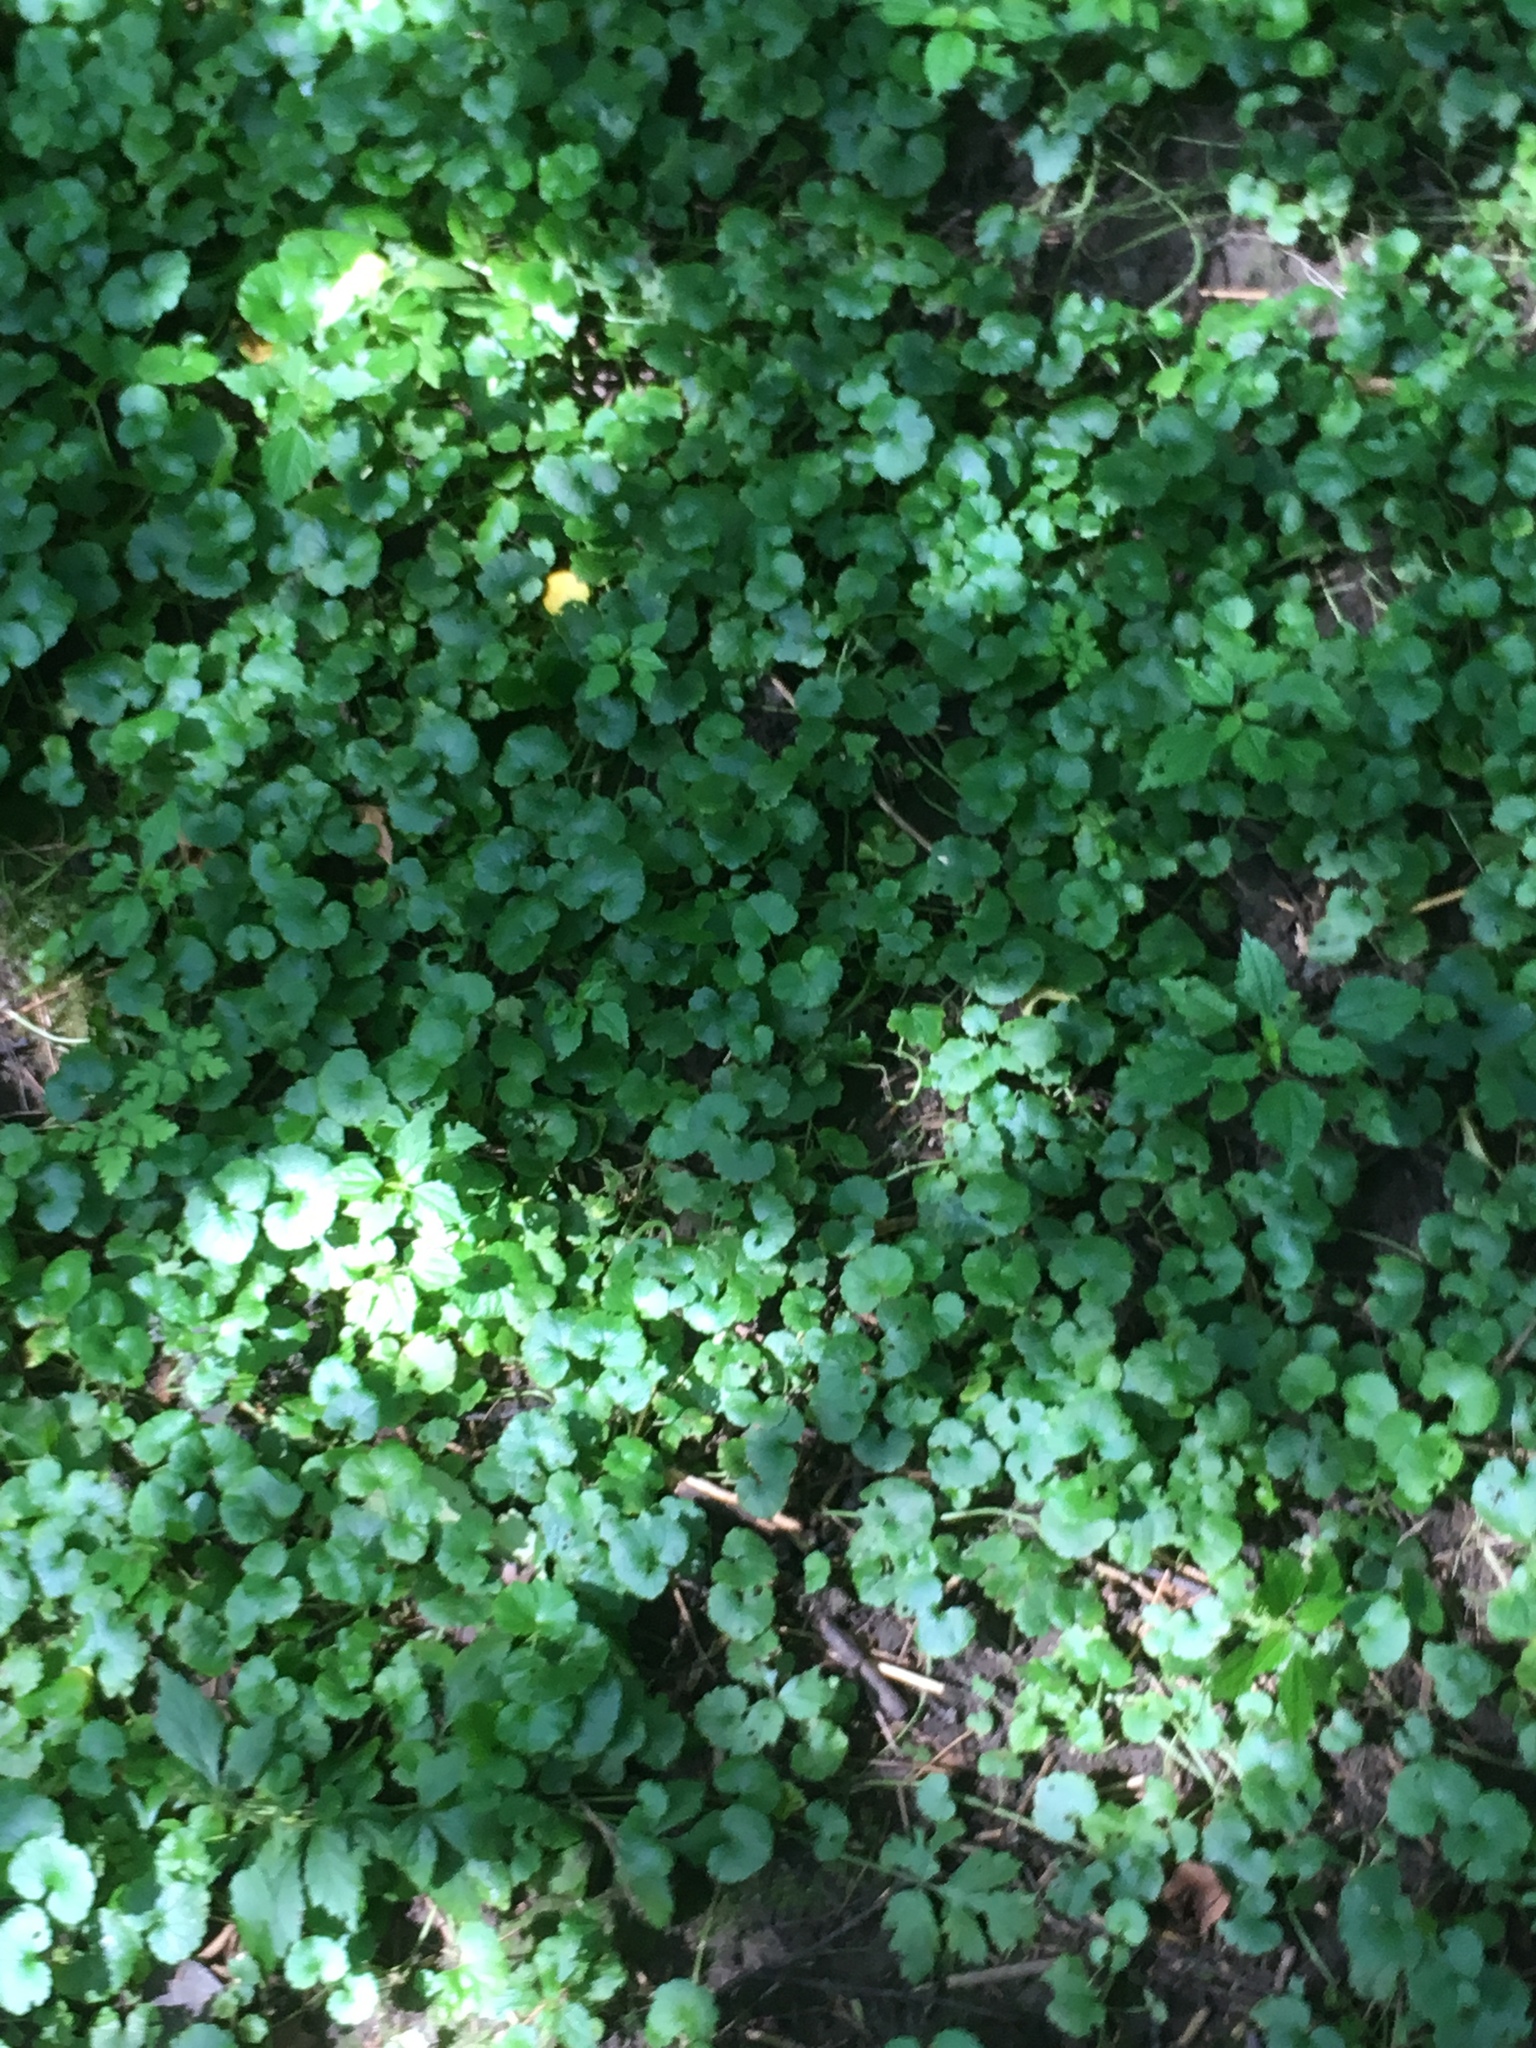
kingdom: Plantae
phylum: Tracheophyta
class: Magnoliopsida
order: Lamiales
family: Lamiaceae
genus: Glechoma
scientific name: Glechoma hederacea
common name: Ground ivy
